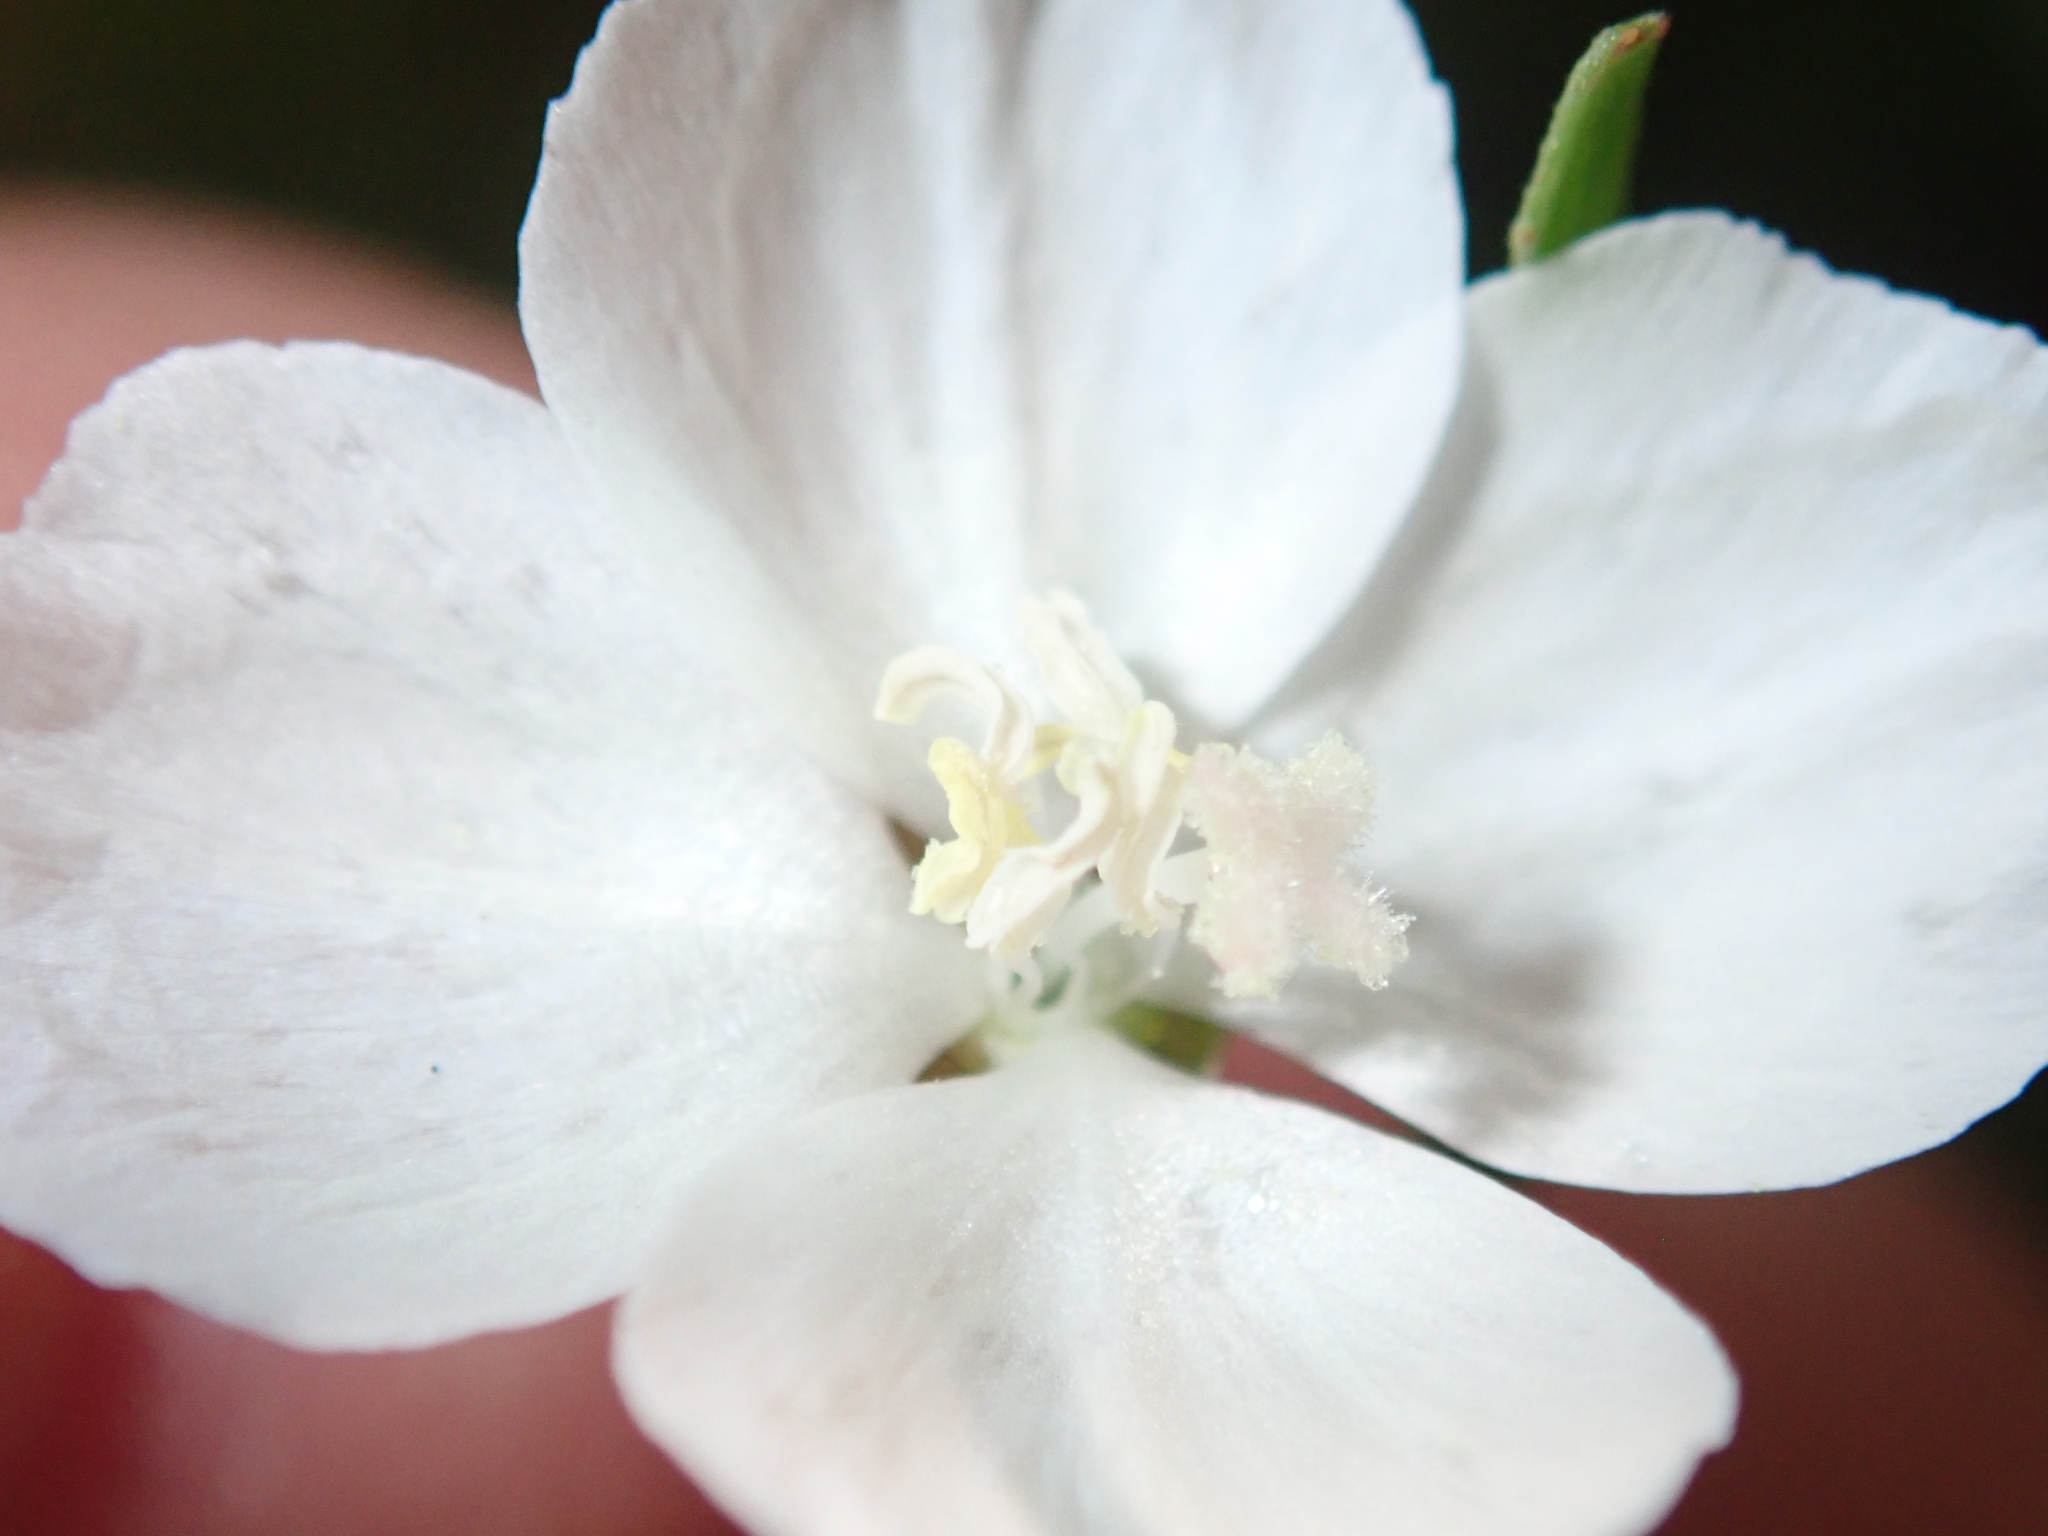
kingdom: Plantae
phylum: Tracheophyta
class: Magnoliopsida
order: Myrtales
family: Onagraceae
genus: Clarkia
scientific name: Clarkia epilobioides
